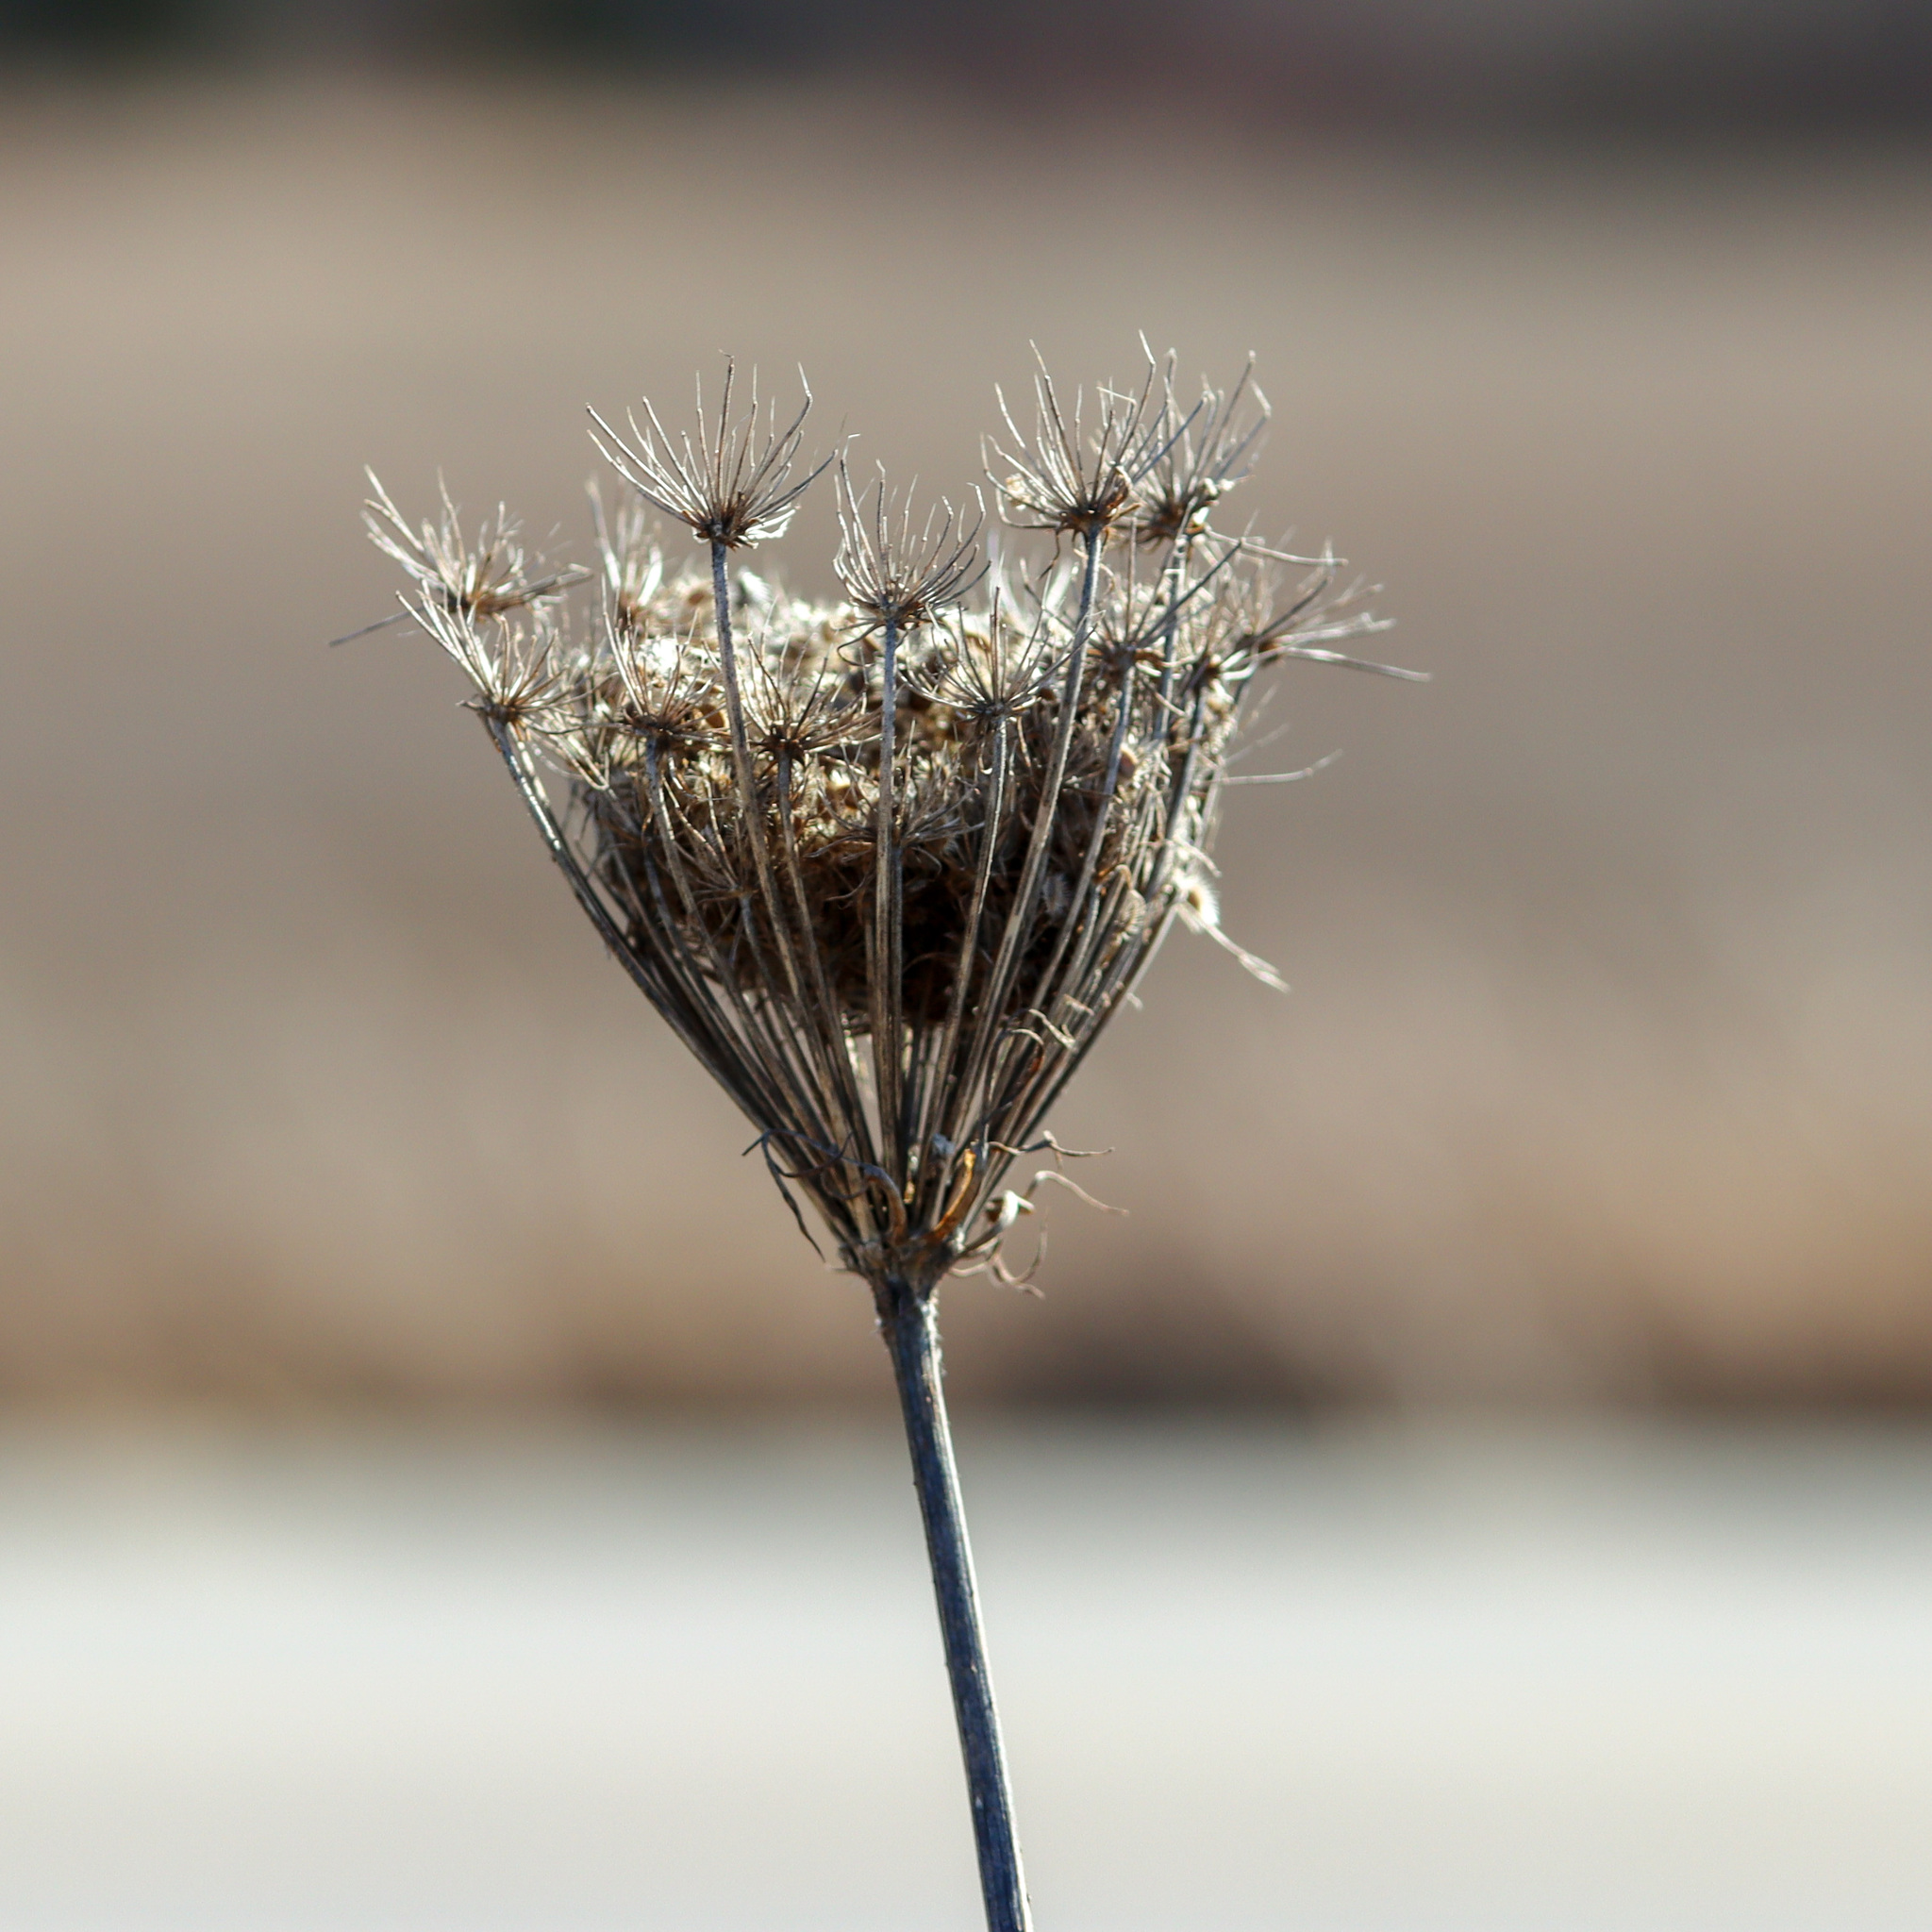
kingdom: Plantae
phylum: Tracheophyta
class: Magnoliopsida
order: Apiales
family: Apiaceae
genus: Daucus
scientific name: Daucus carota
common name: Wild carrot
